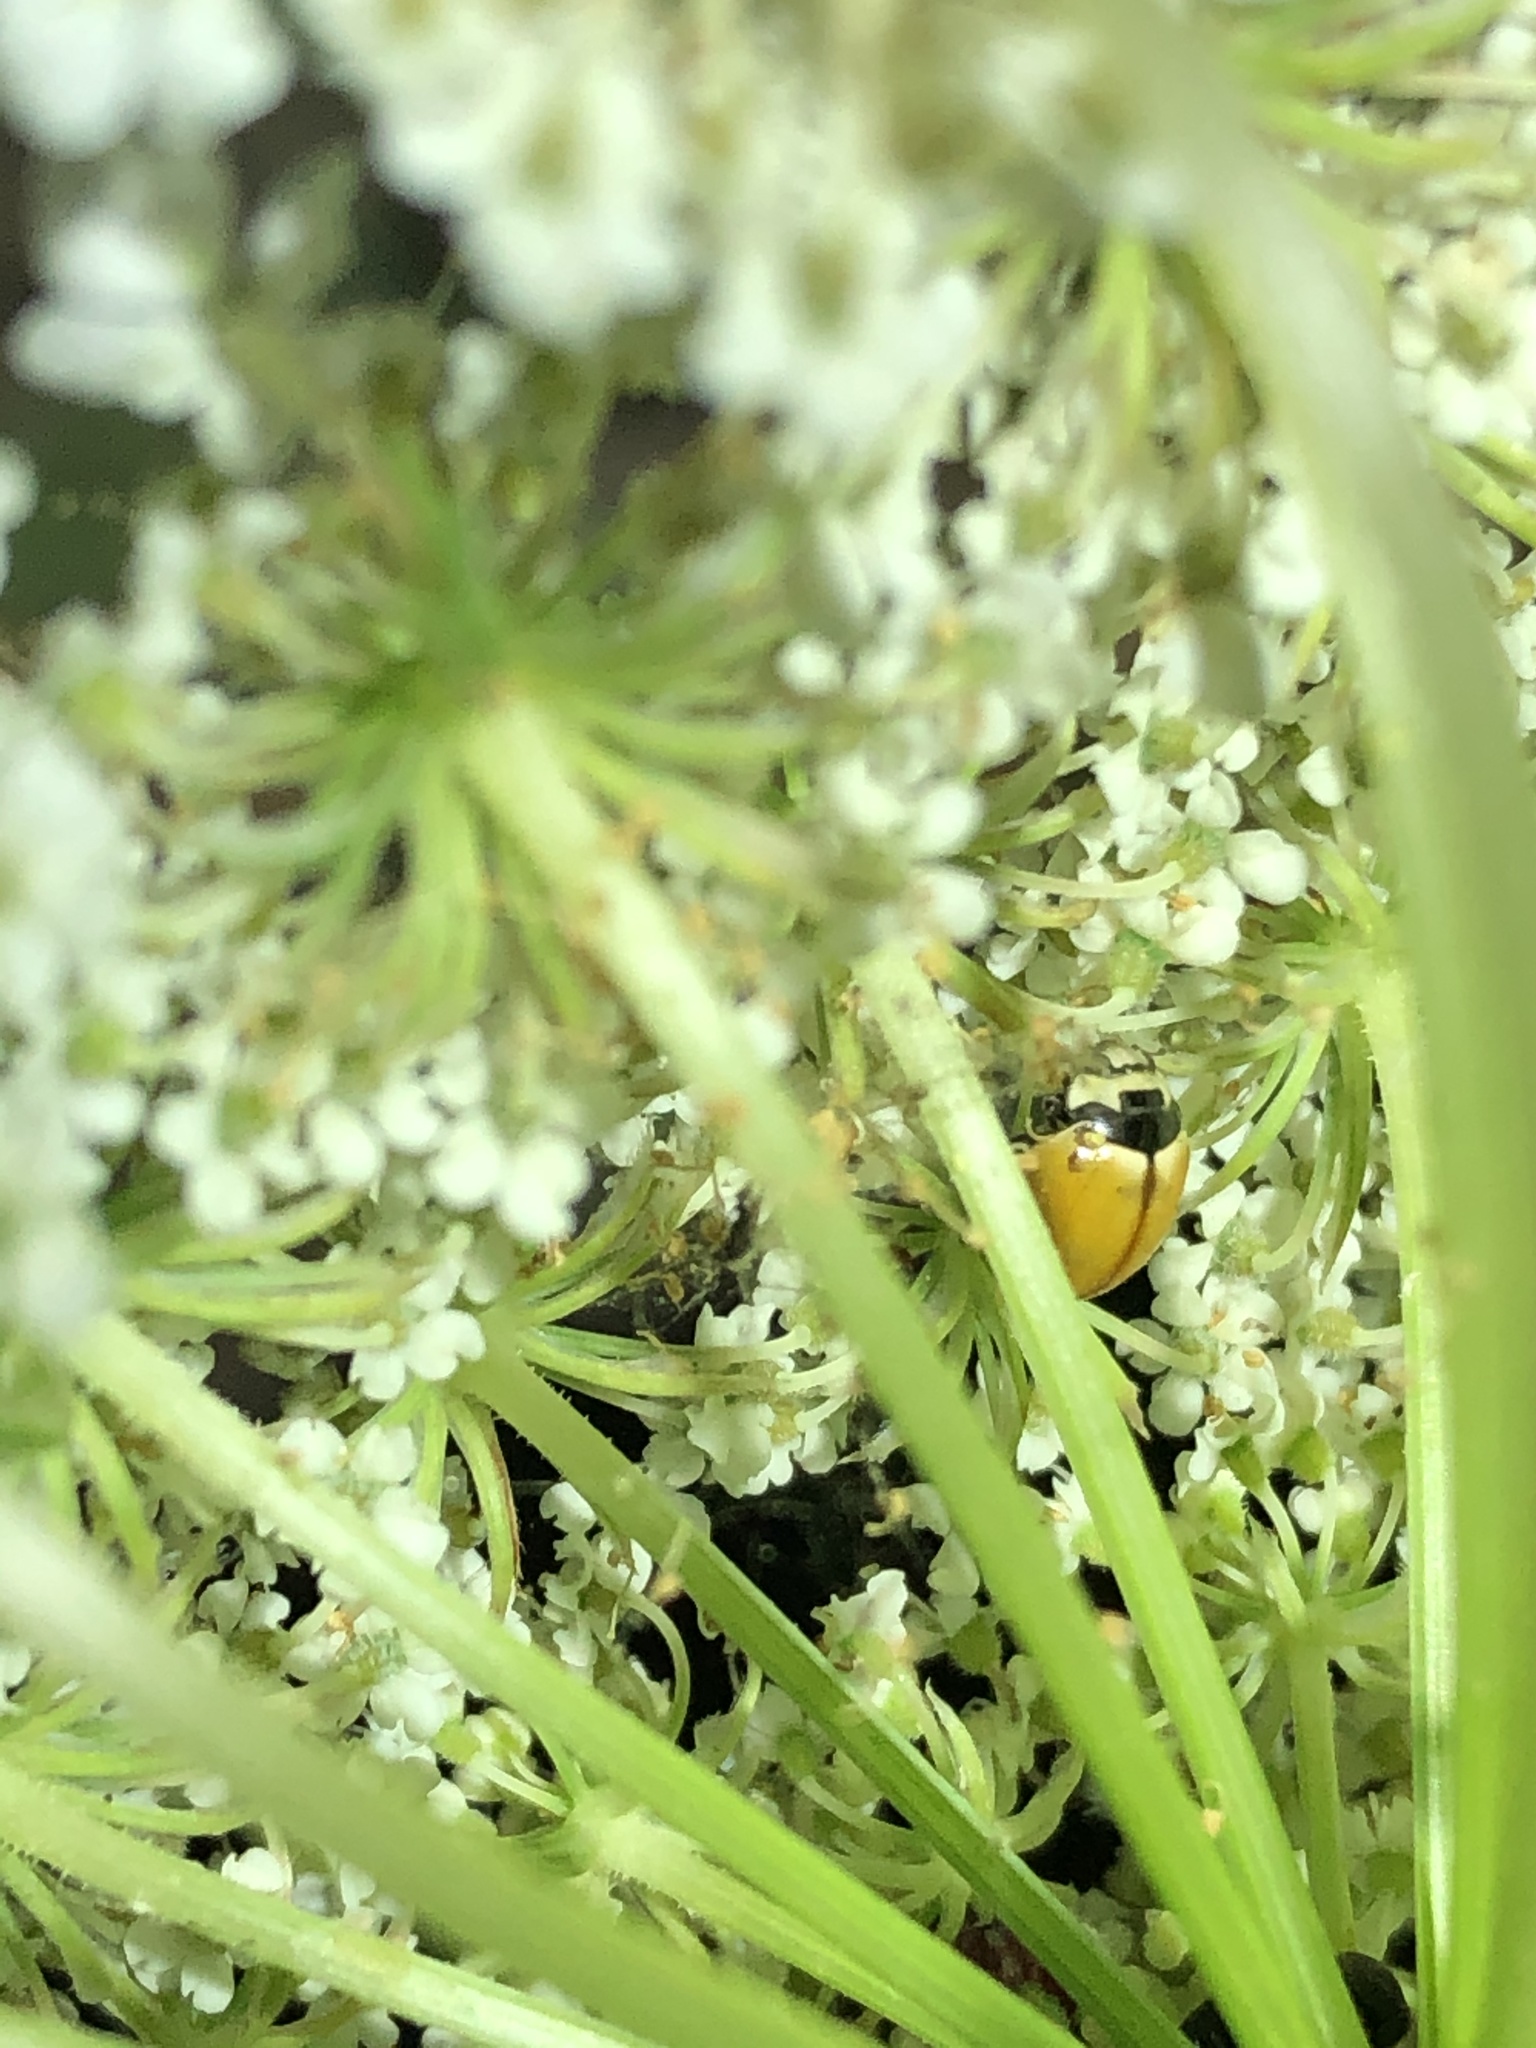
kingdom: Animalia
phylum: Arthropoda
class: Insecta
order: Coleoptera
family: Coccinellidae
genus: Coccinella
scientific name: Coccinella trifasciata
